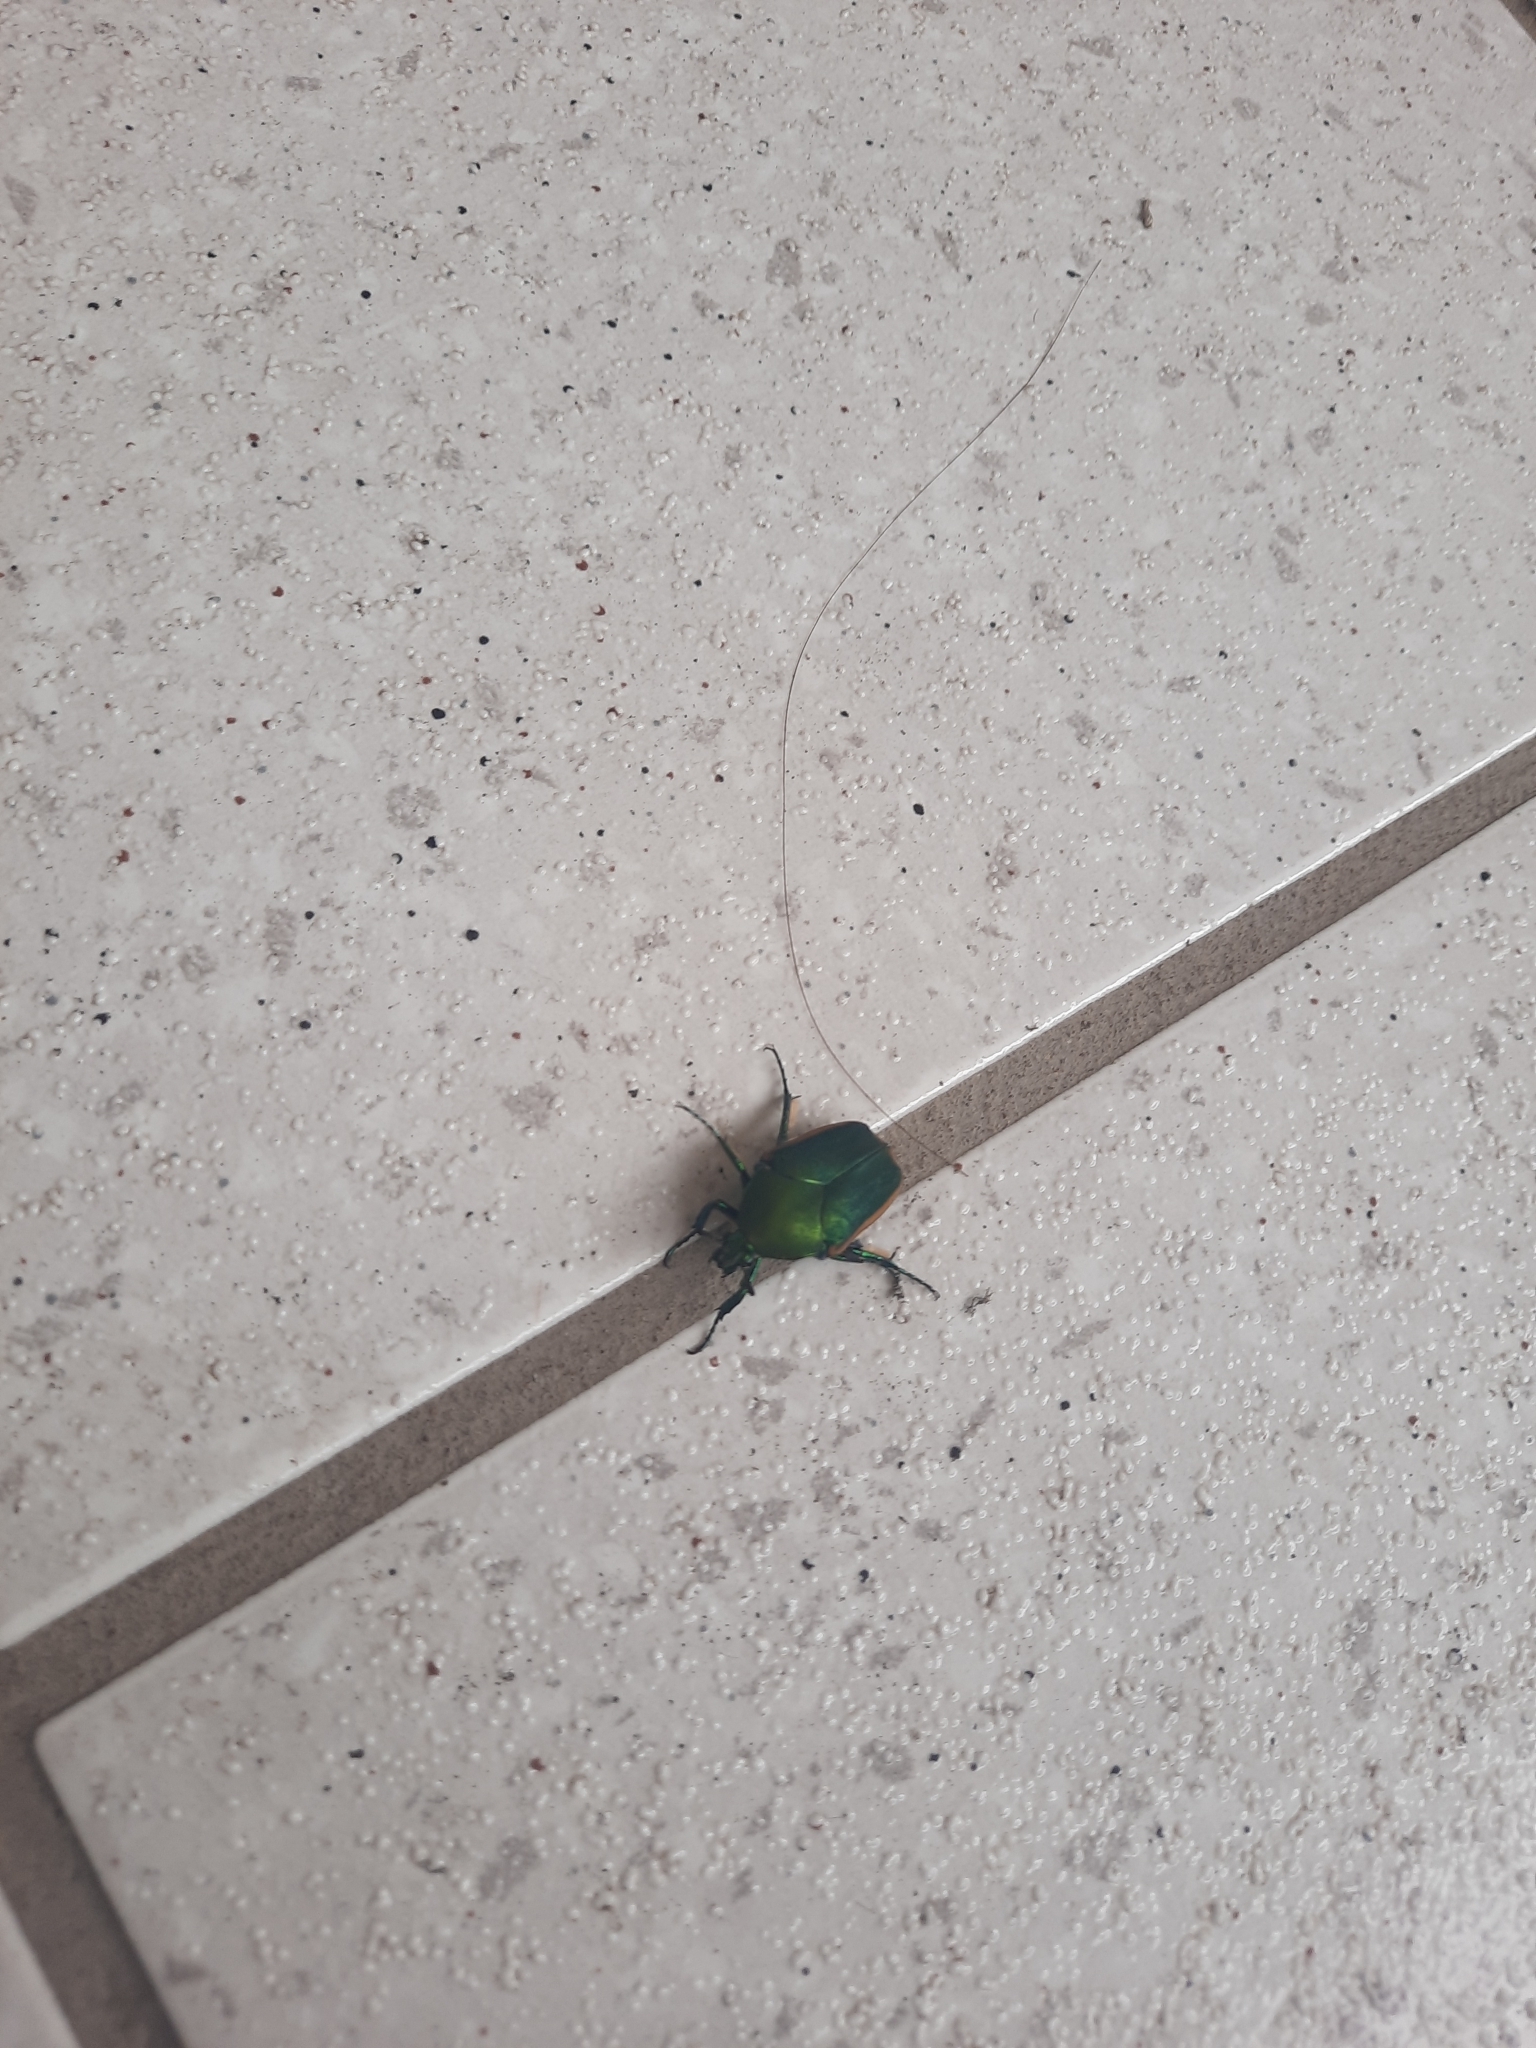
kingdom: Animalia
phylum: Arthropoda
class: Insecta
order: Coleoptera
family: Scarabaeidae
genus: Cotinis
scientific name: Cotinis mutabilis
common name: Figeater beetle
